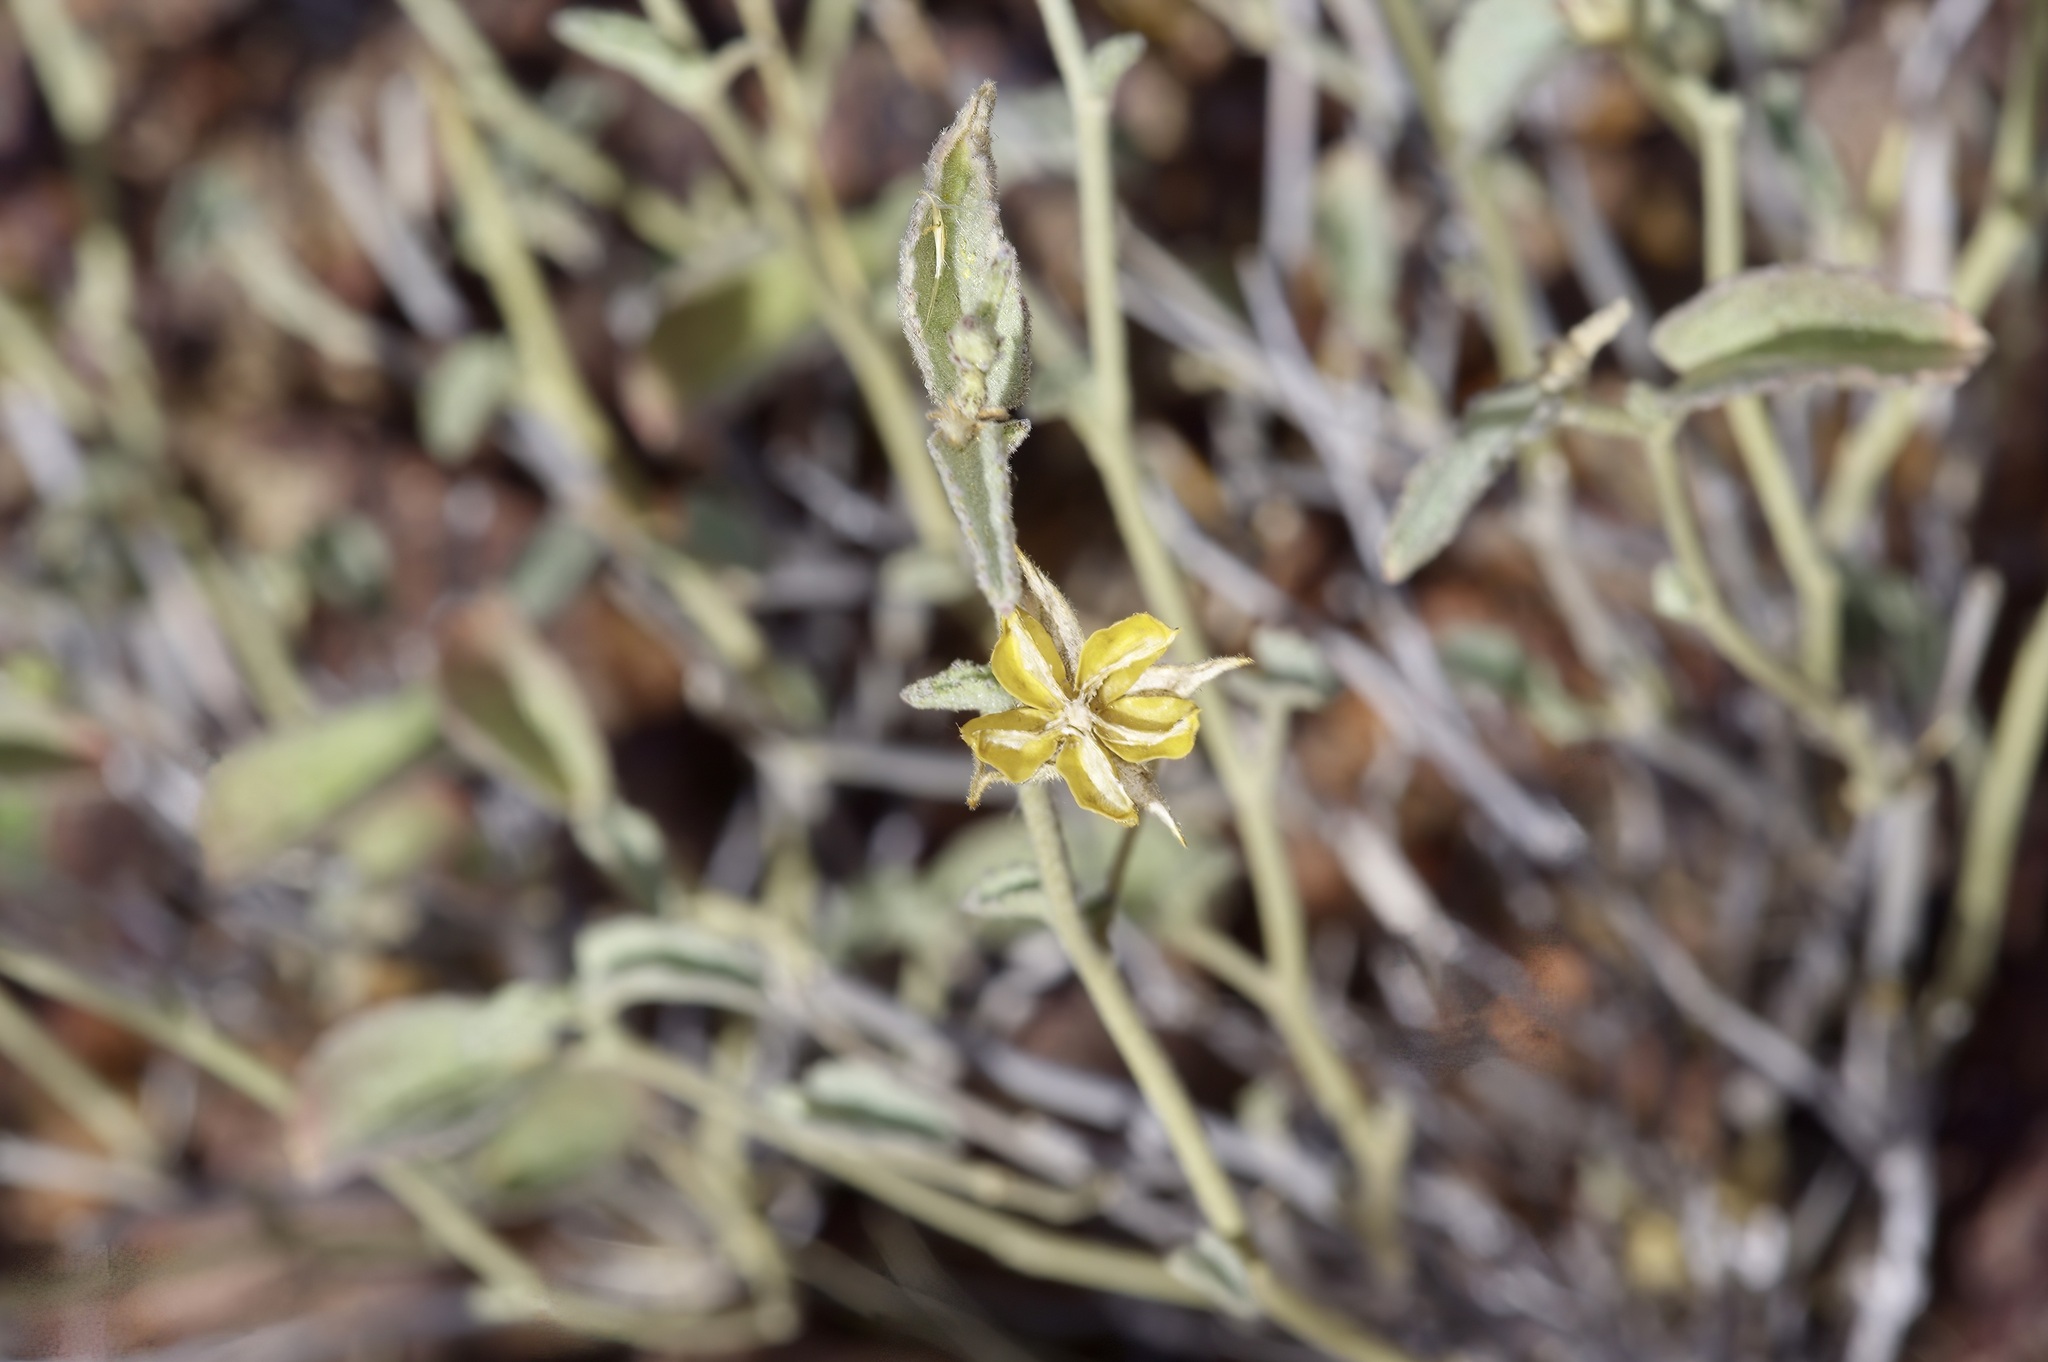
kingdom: Plantae
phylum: Tracheophyta
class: Magnoliopsida
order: Malvales
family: Malvaceae
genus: Hibiscus
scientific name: Hibiscus denudatus
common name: Paleface
